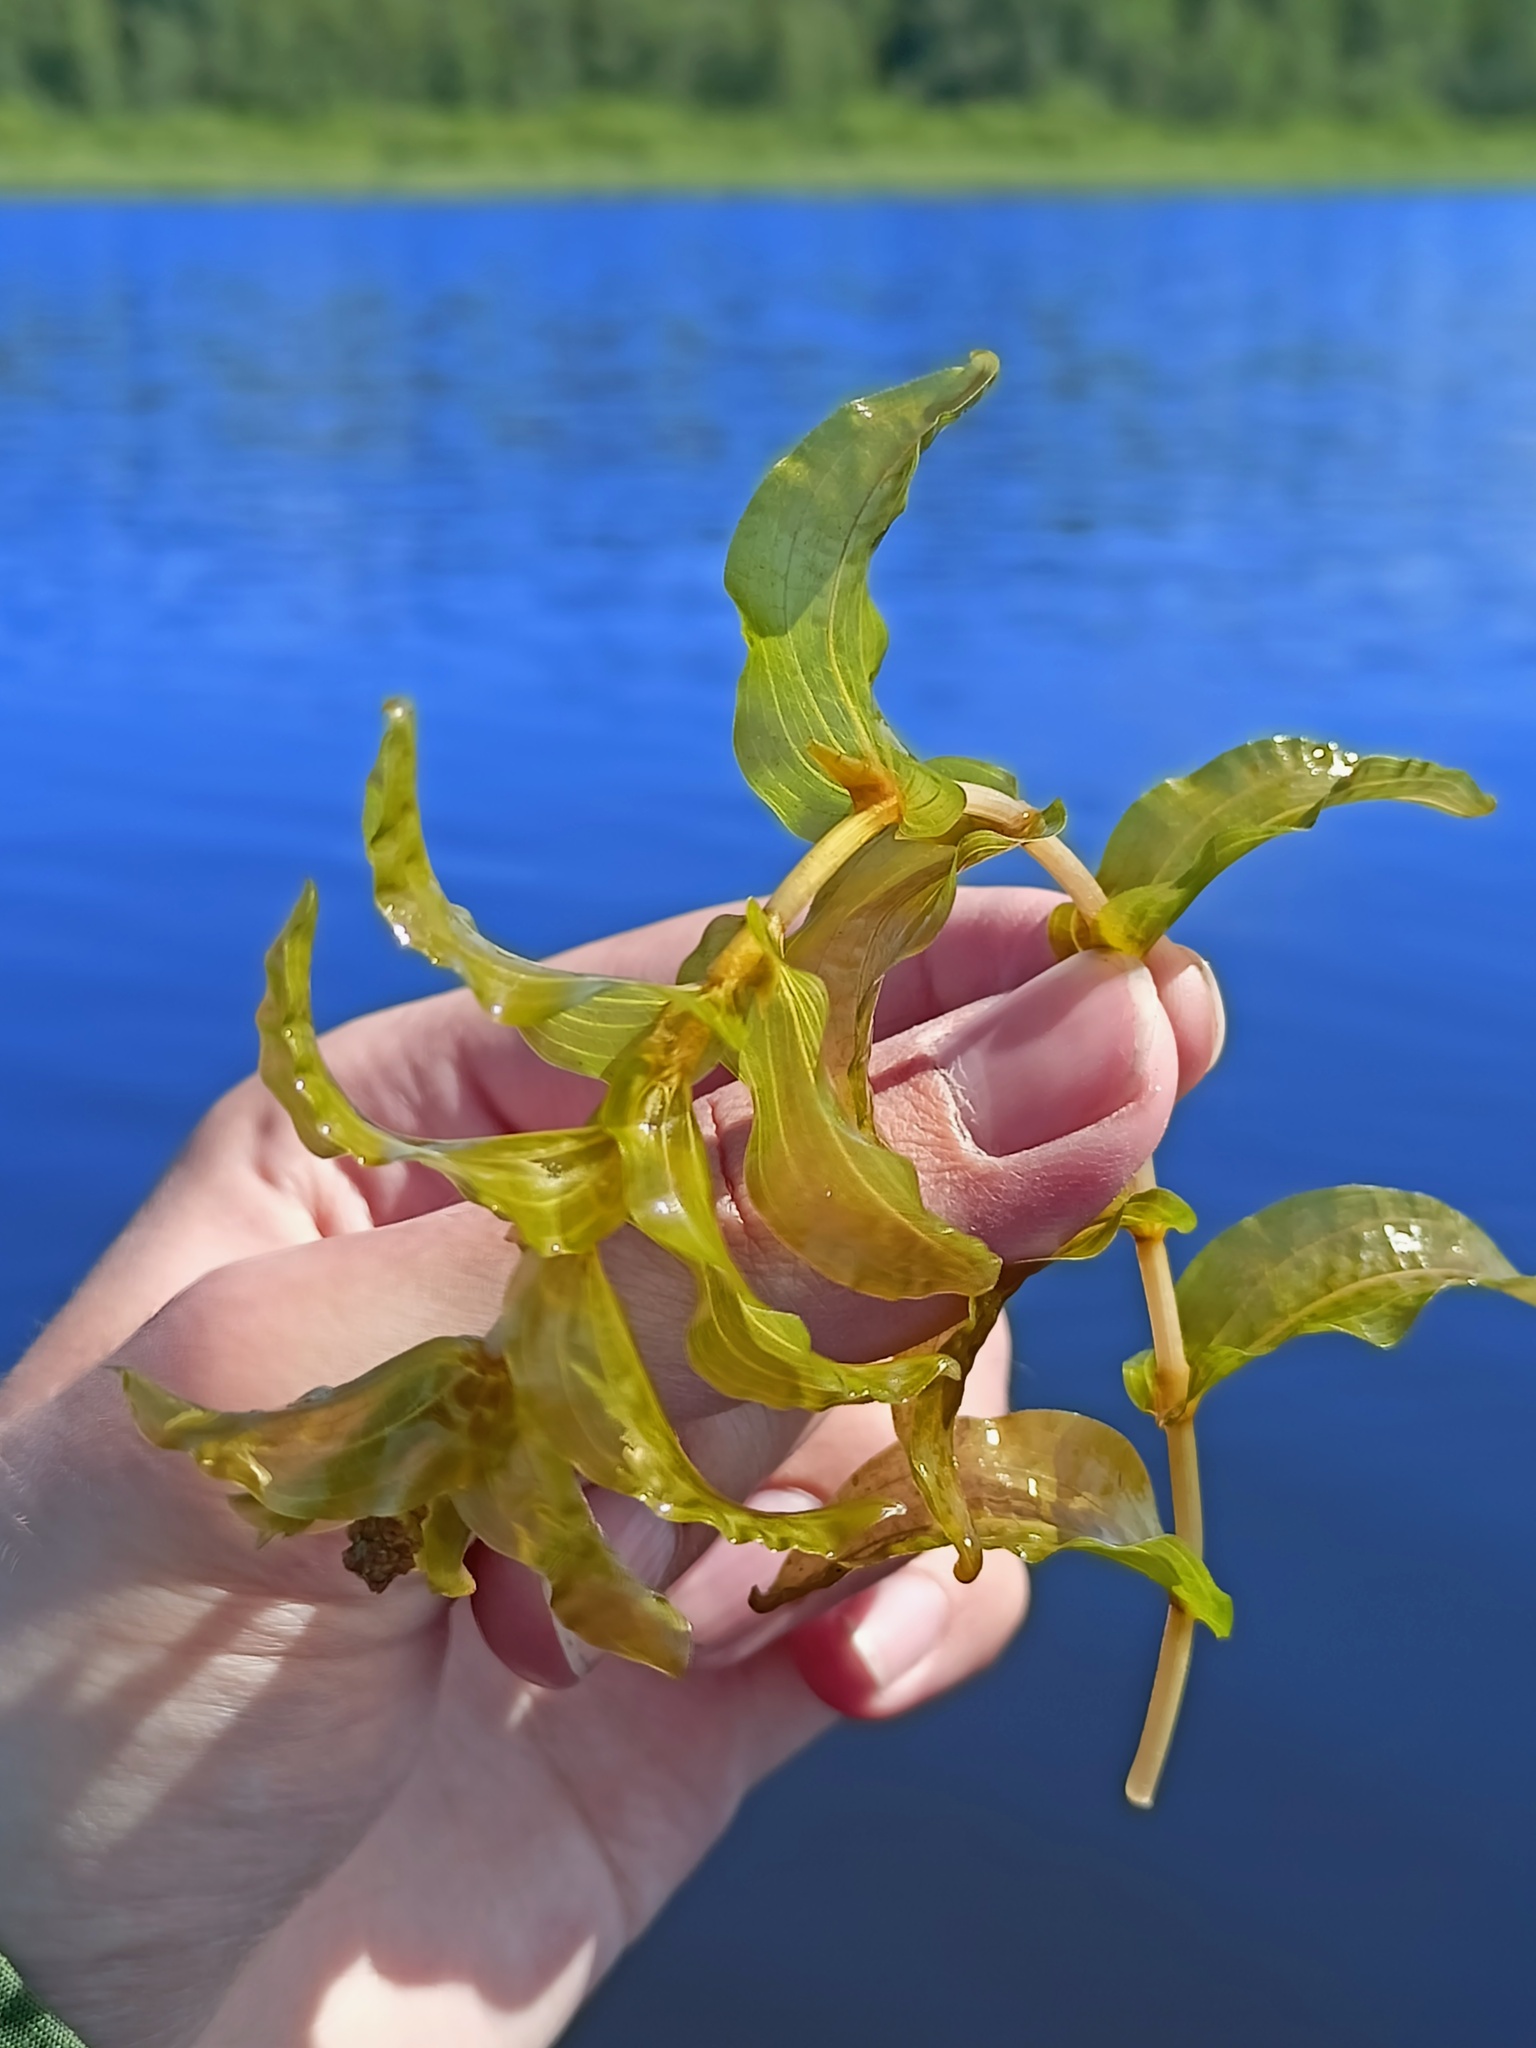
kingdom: Plantae
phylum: Tracheophyta
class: Liliopsida
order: Alismatales
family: Potamogetonaceae
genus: Potamogeton
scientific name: Potamogeton perfoliatus
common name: Perfoliate pondweed
